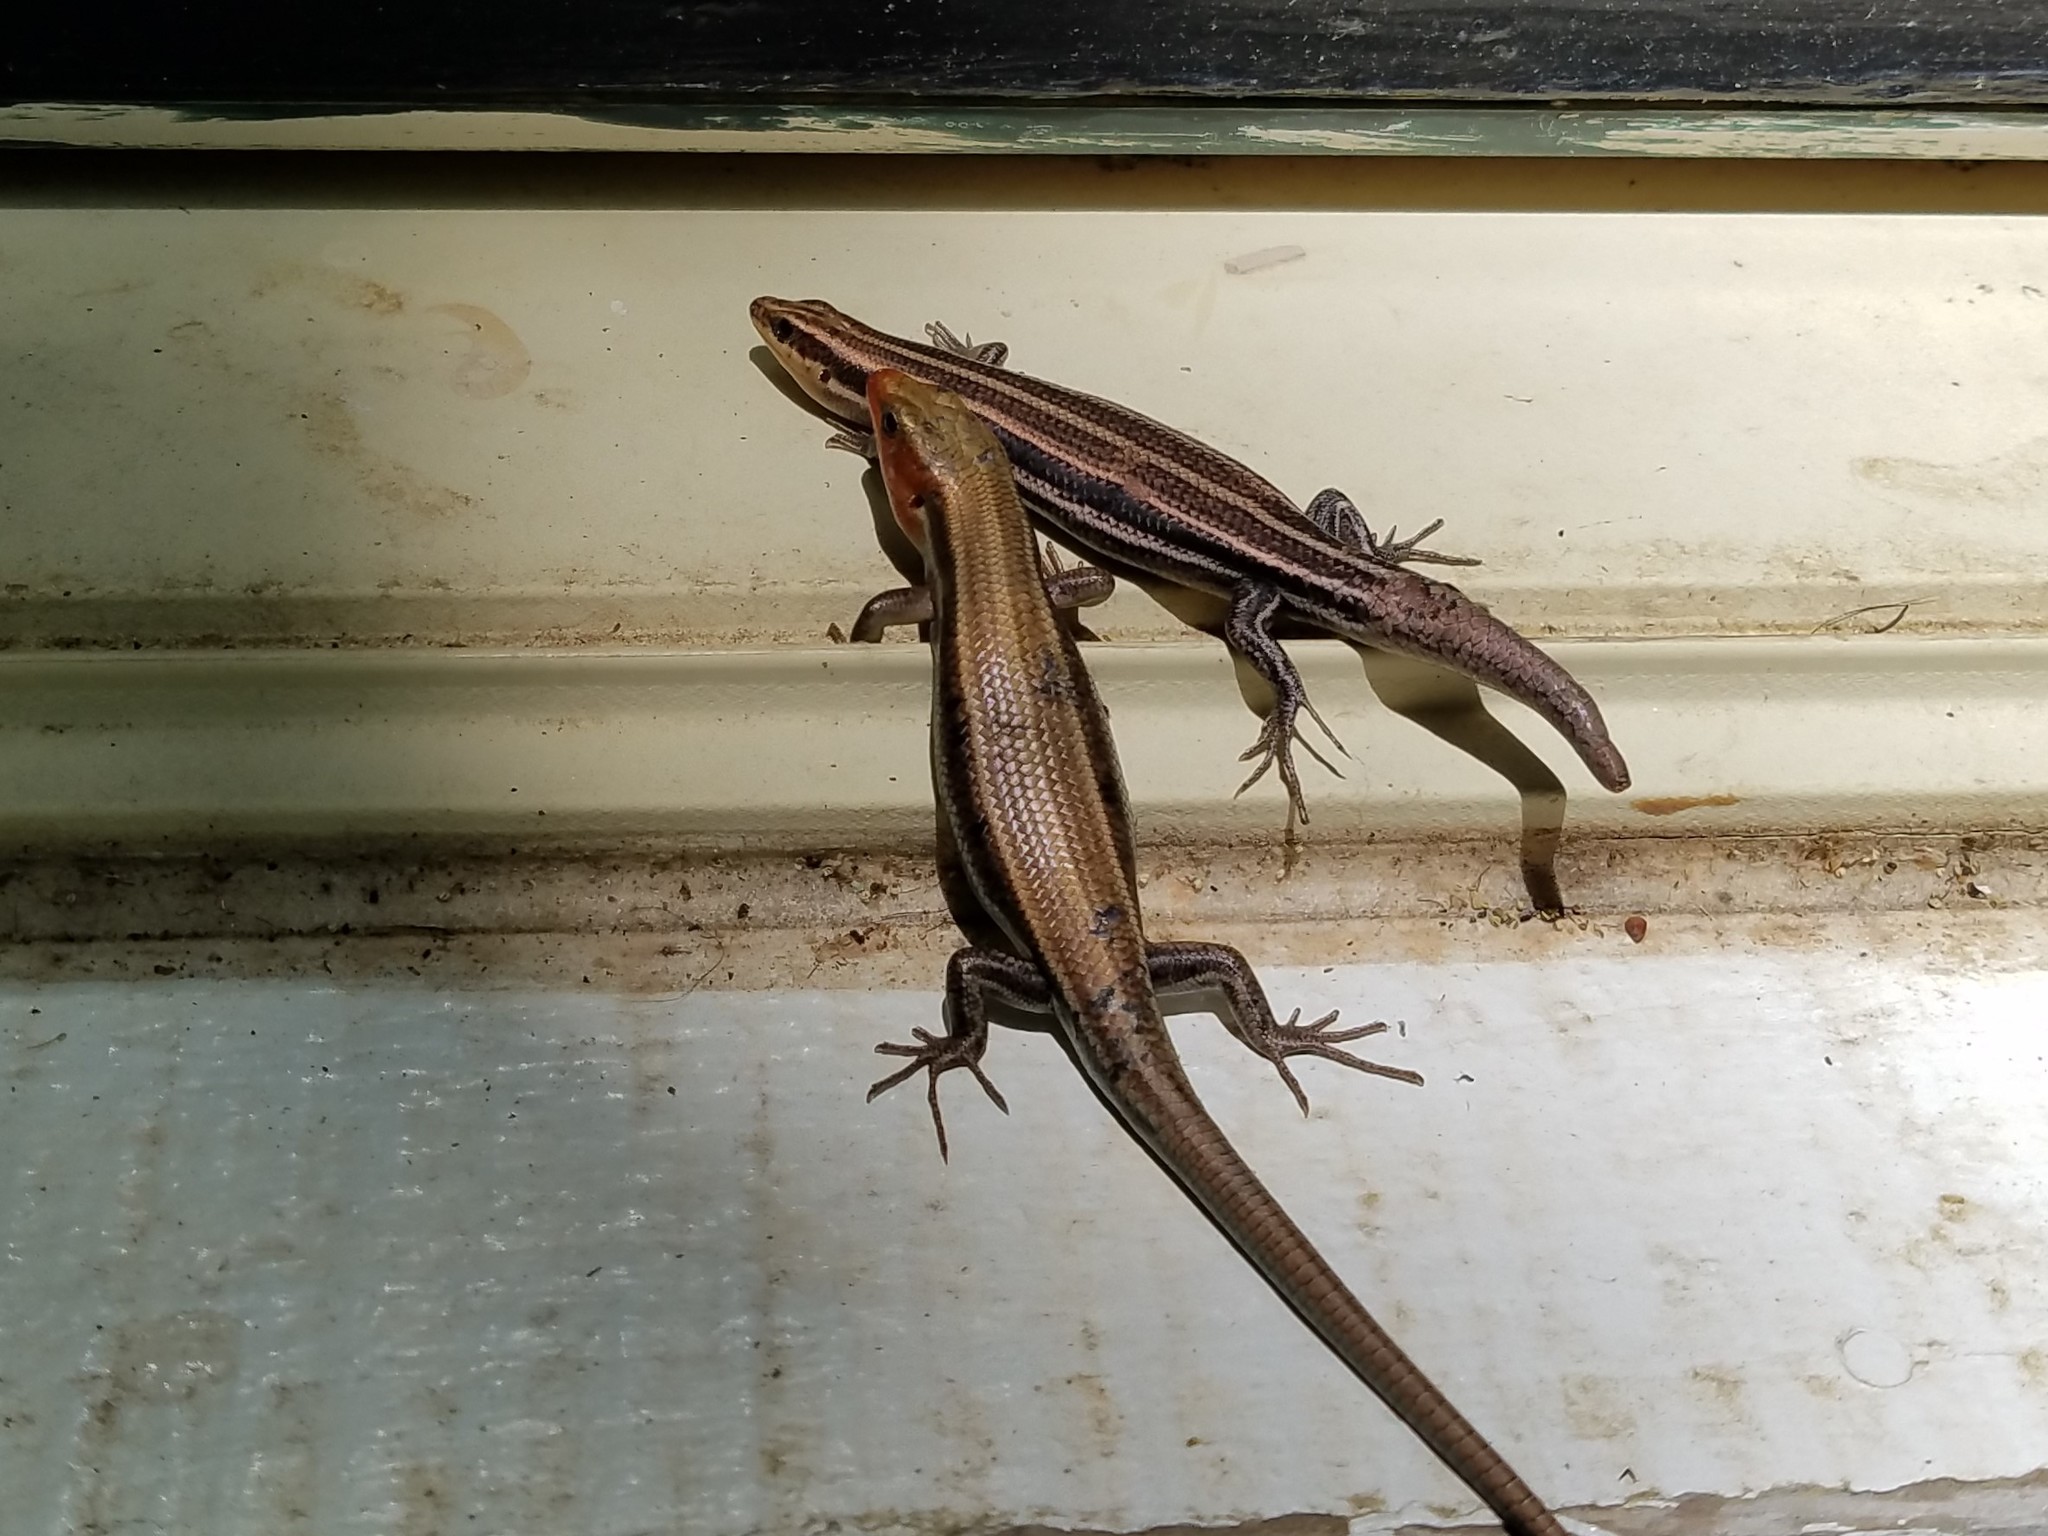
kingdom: Animalia
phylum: Chordata
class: Squamata
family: Scincidae
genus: Plestiodon
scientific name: Plestiodon fasciatus
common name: Five-lined skink
